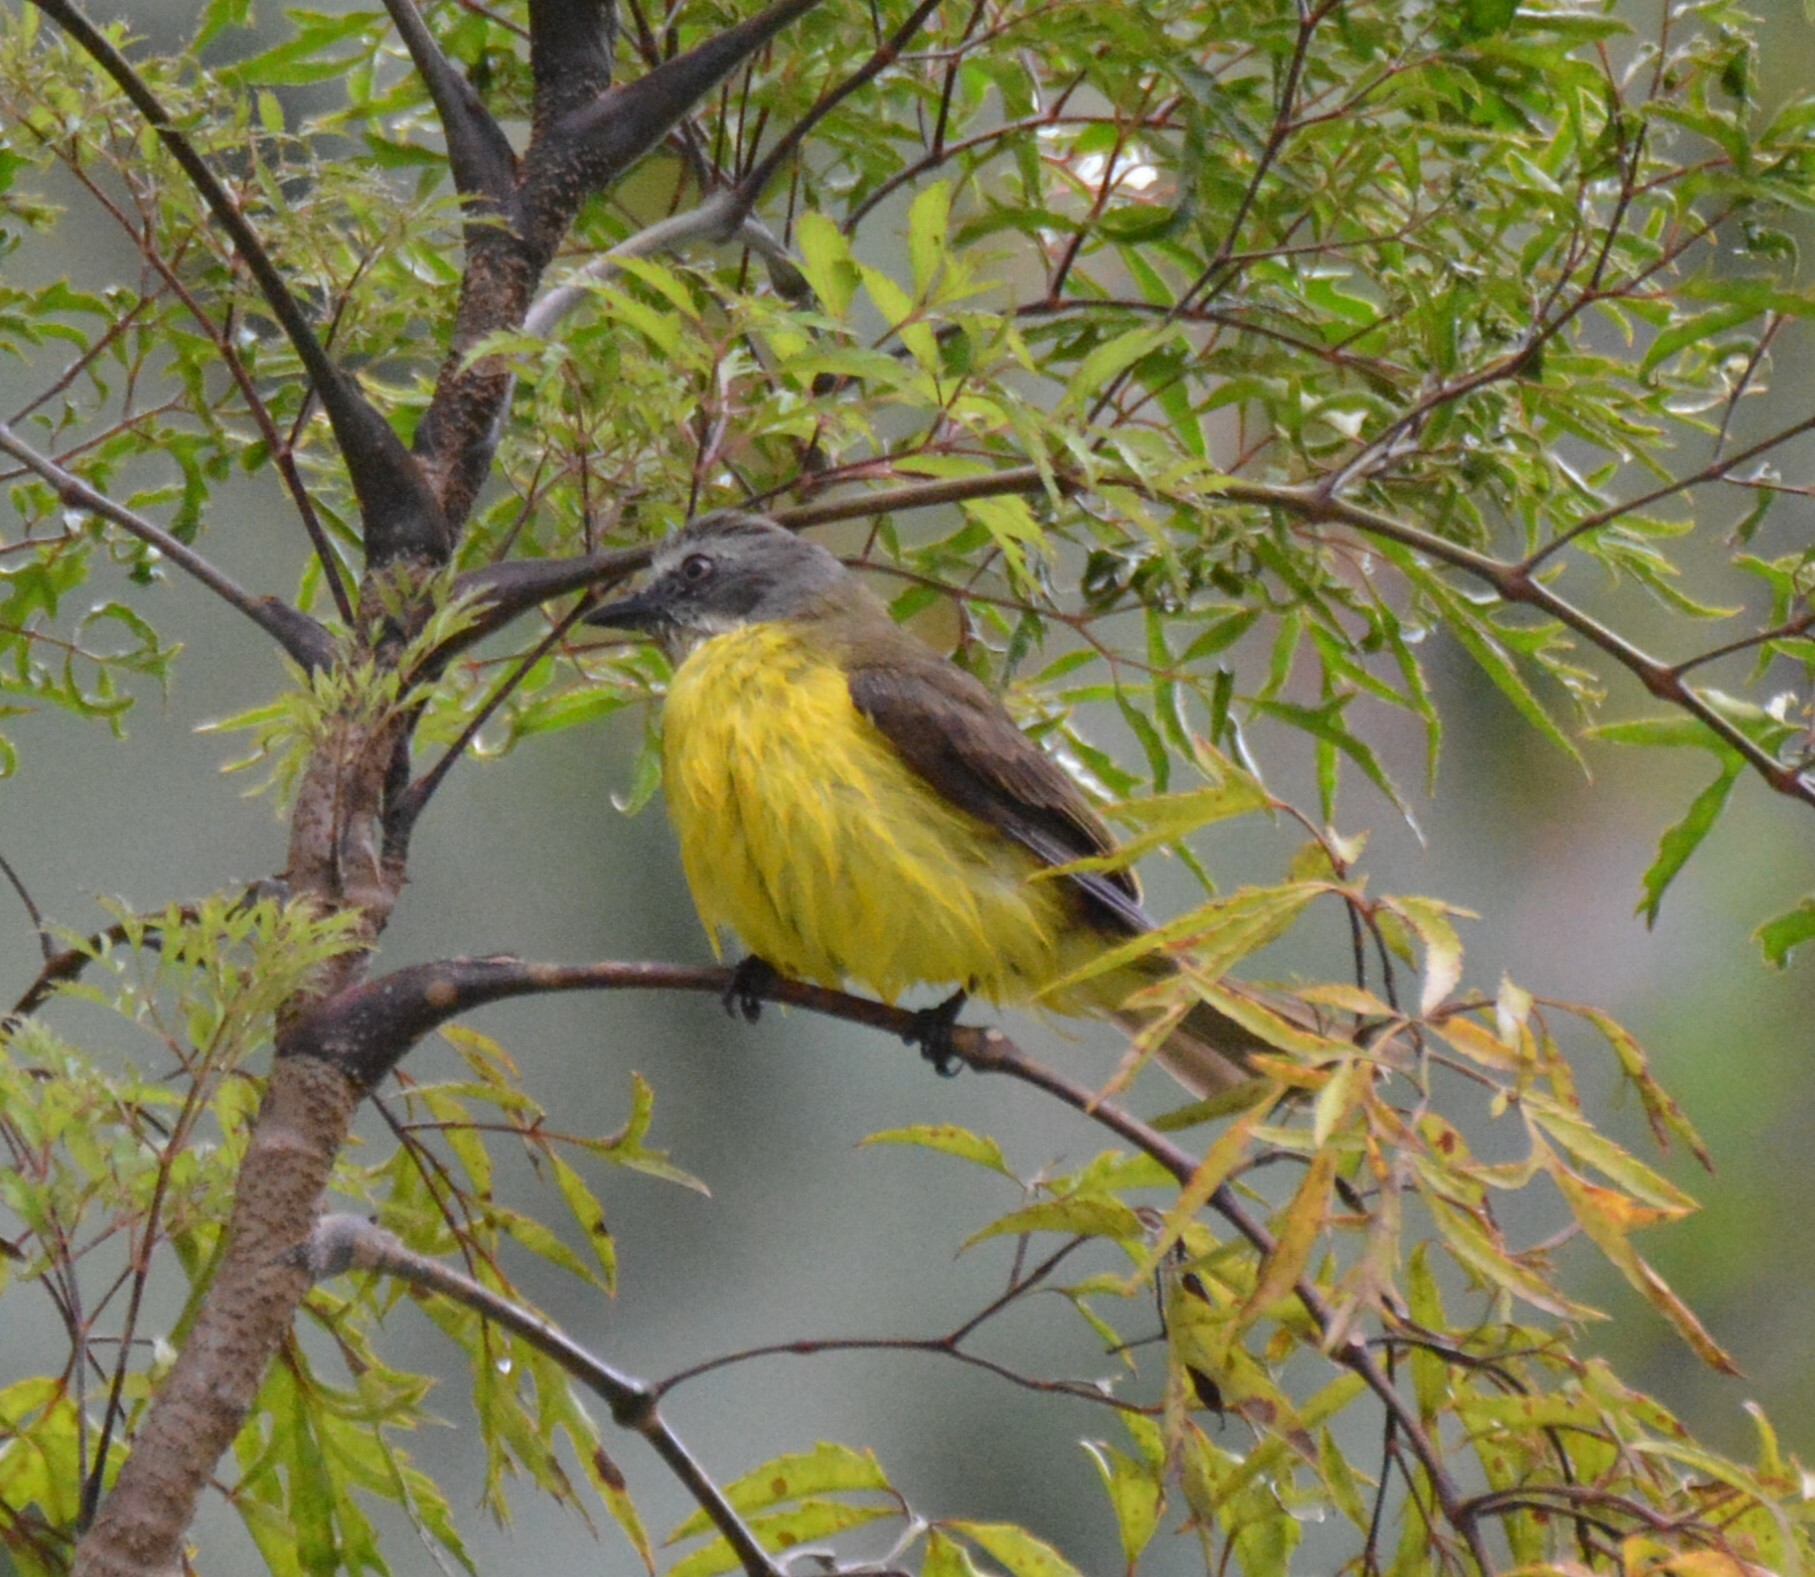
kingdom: Animalia
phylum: Chordata
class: Aves
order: Passeriformes
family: Tyrannidae
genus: Myiozetetes
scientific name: Myiozetetes granadensis
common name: Gray-capped flycatcher
